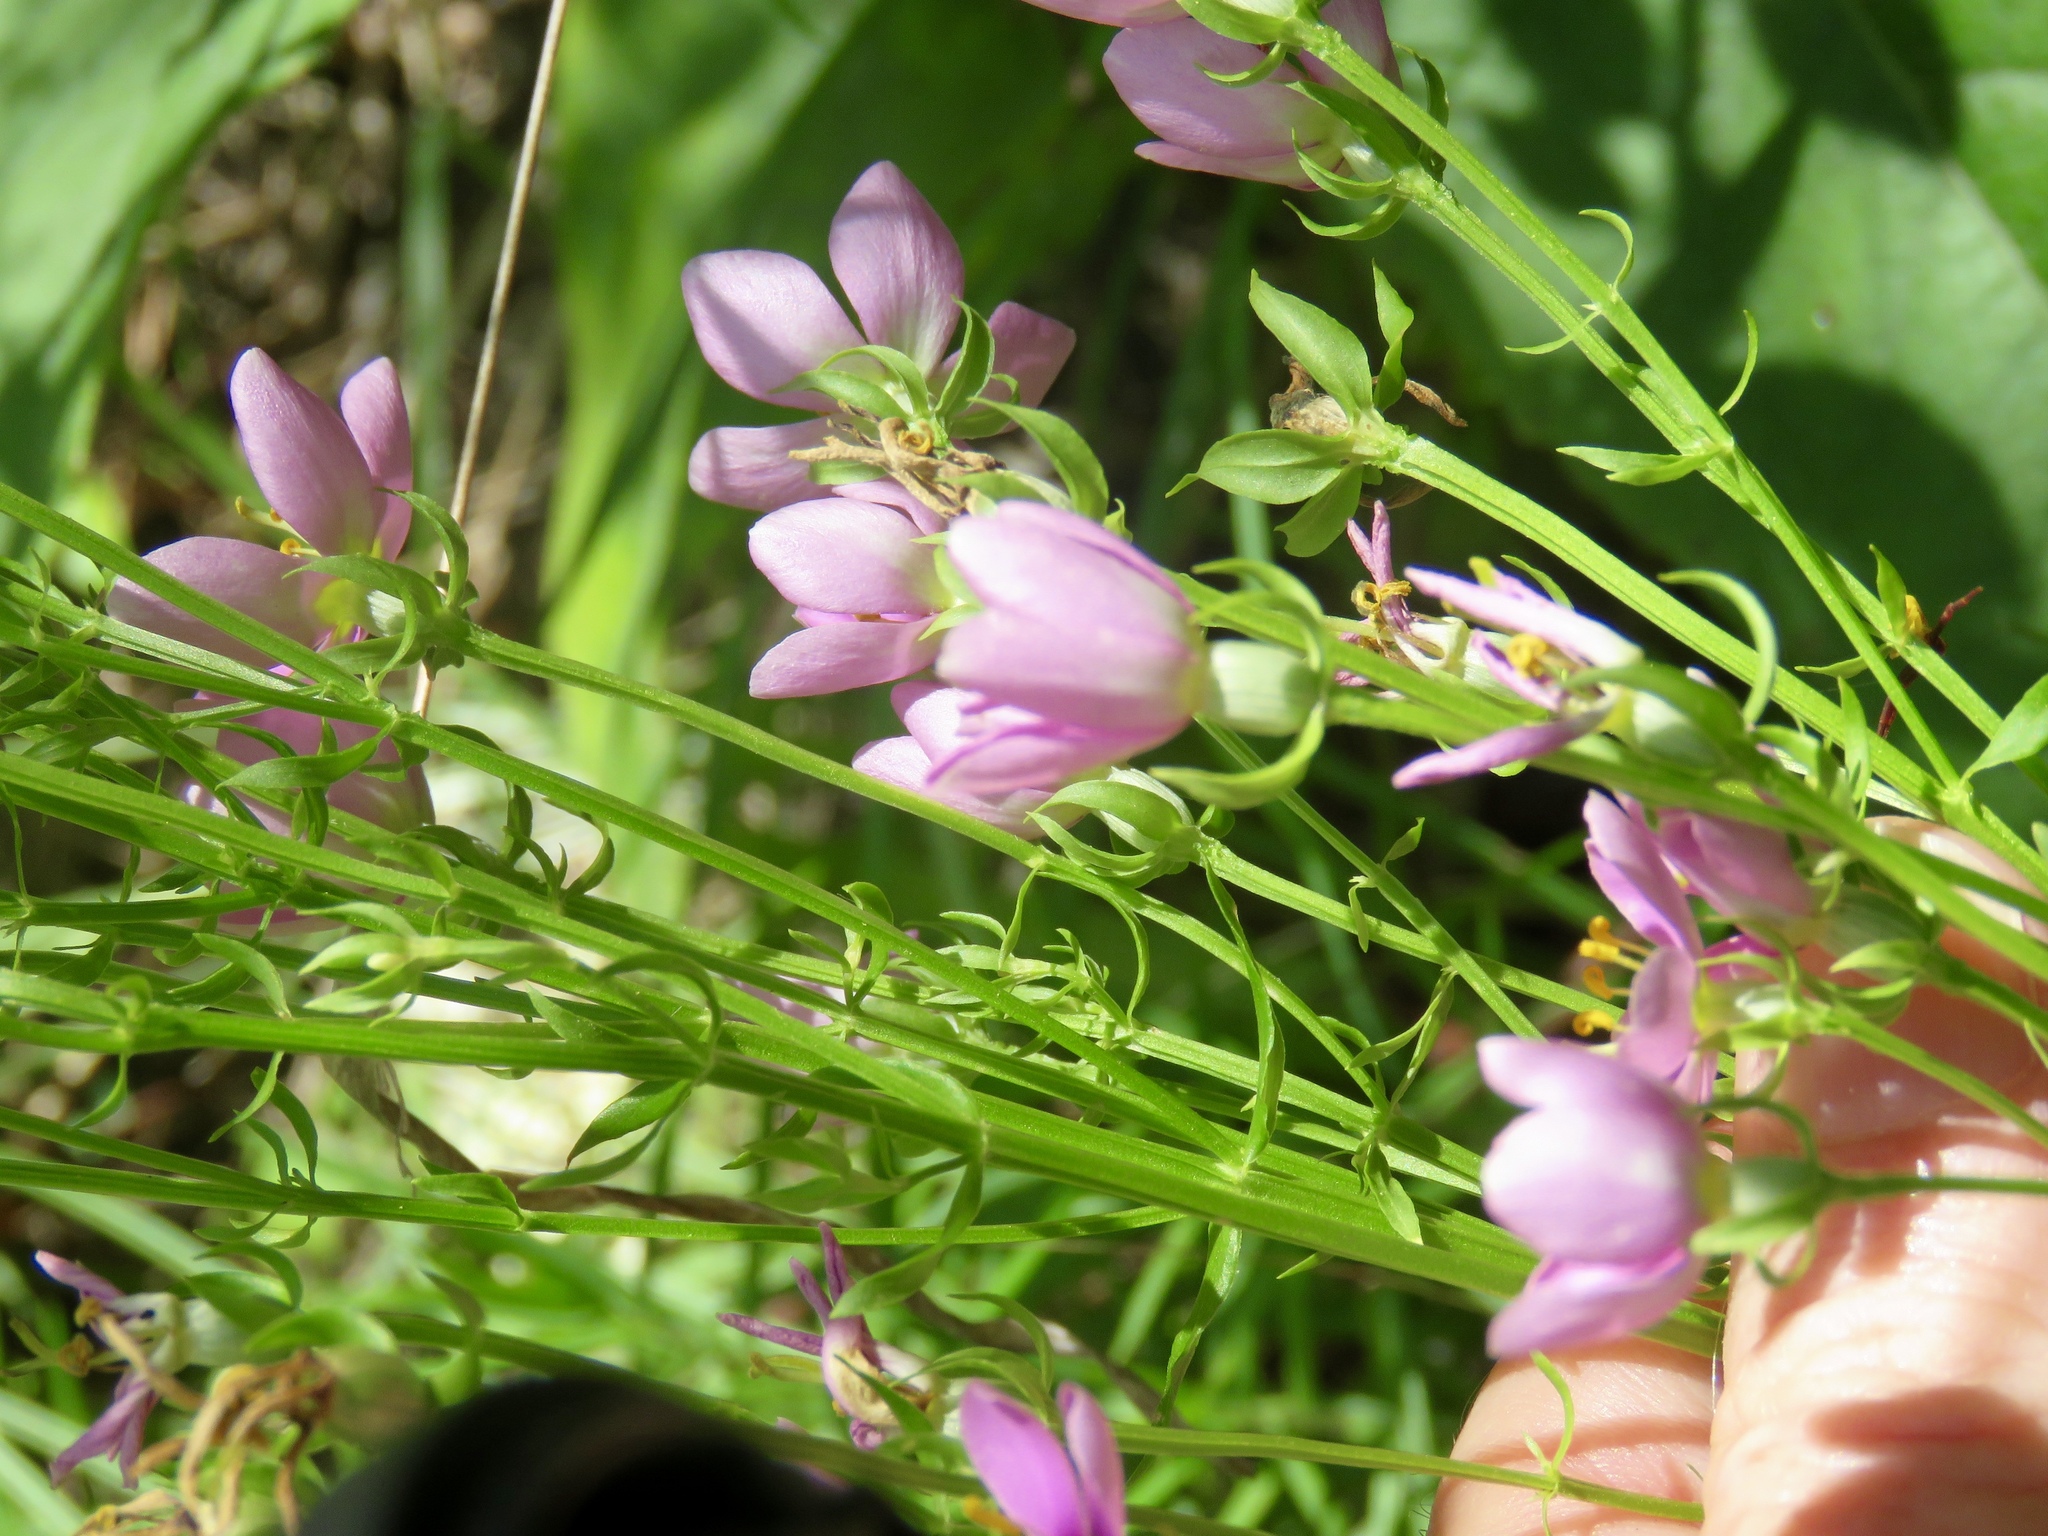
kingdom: Plantae
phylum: Tracheophyta
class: Magnoliopsida
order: Gentianales
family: Gentianaceae
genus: Sabatia
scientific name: Sabatia angularis
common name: Rose-pink
